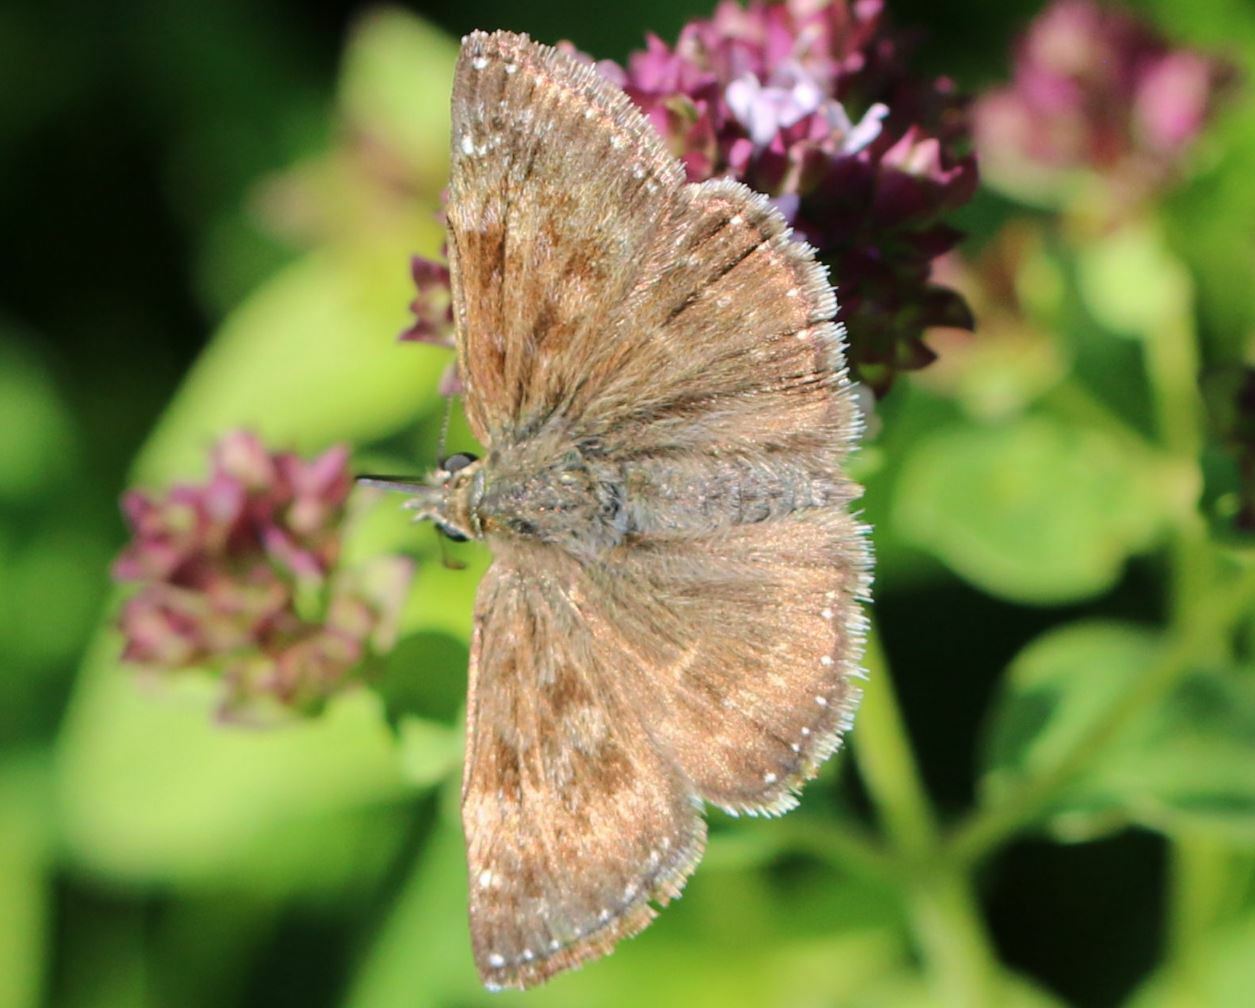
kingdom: Animalia
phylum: Arthropoda
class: Insecta
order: Lepidoptera
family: Hesperiidae
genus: Erynnis
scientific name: Erynnis tages
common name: Dingy skipper
